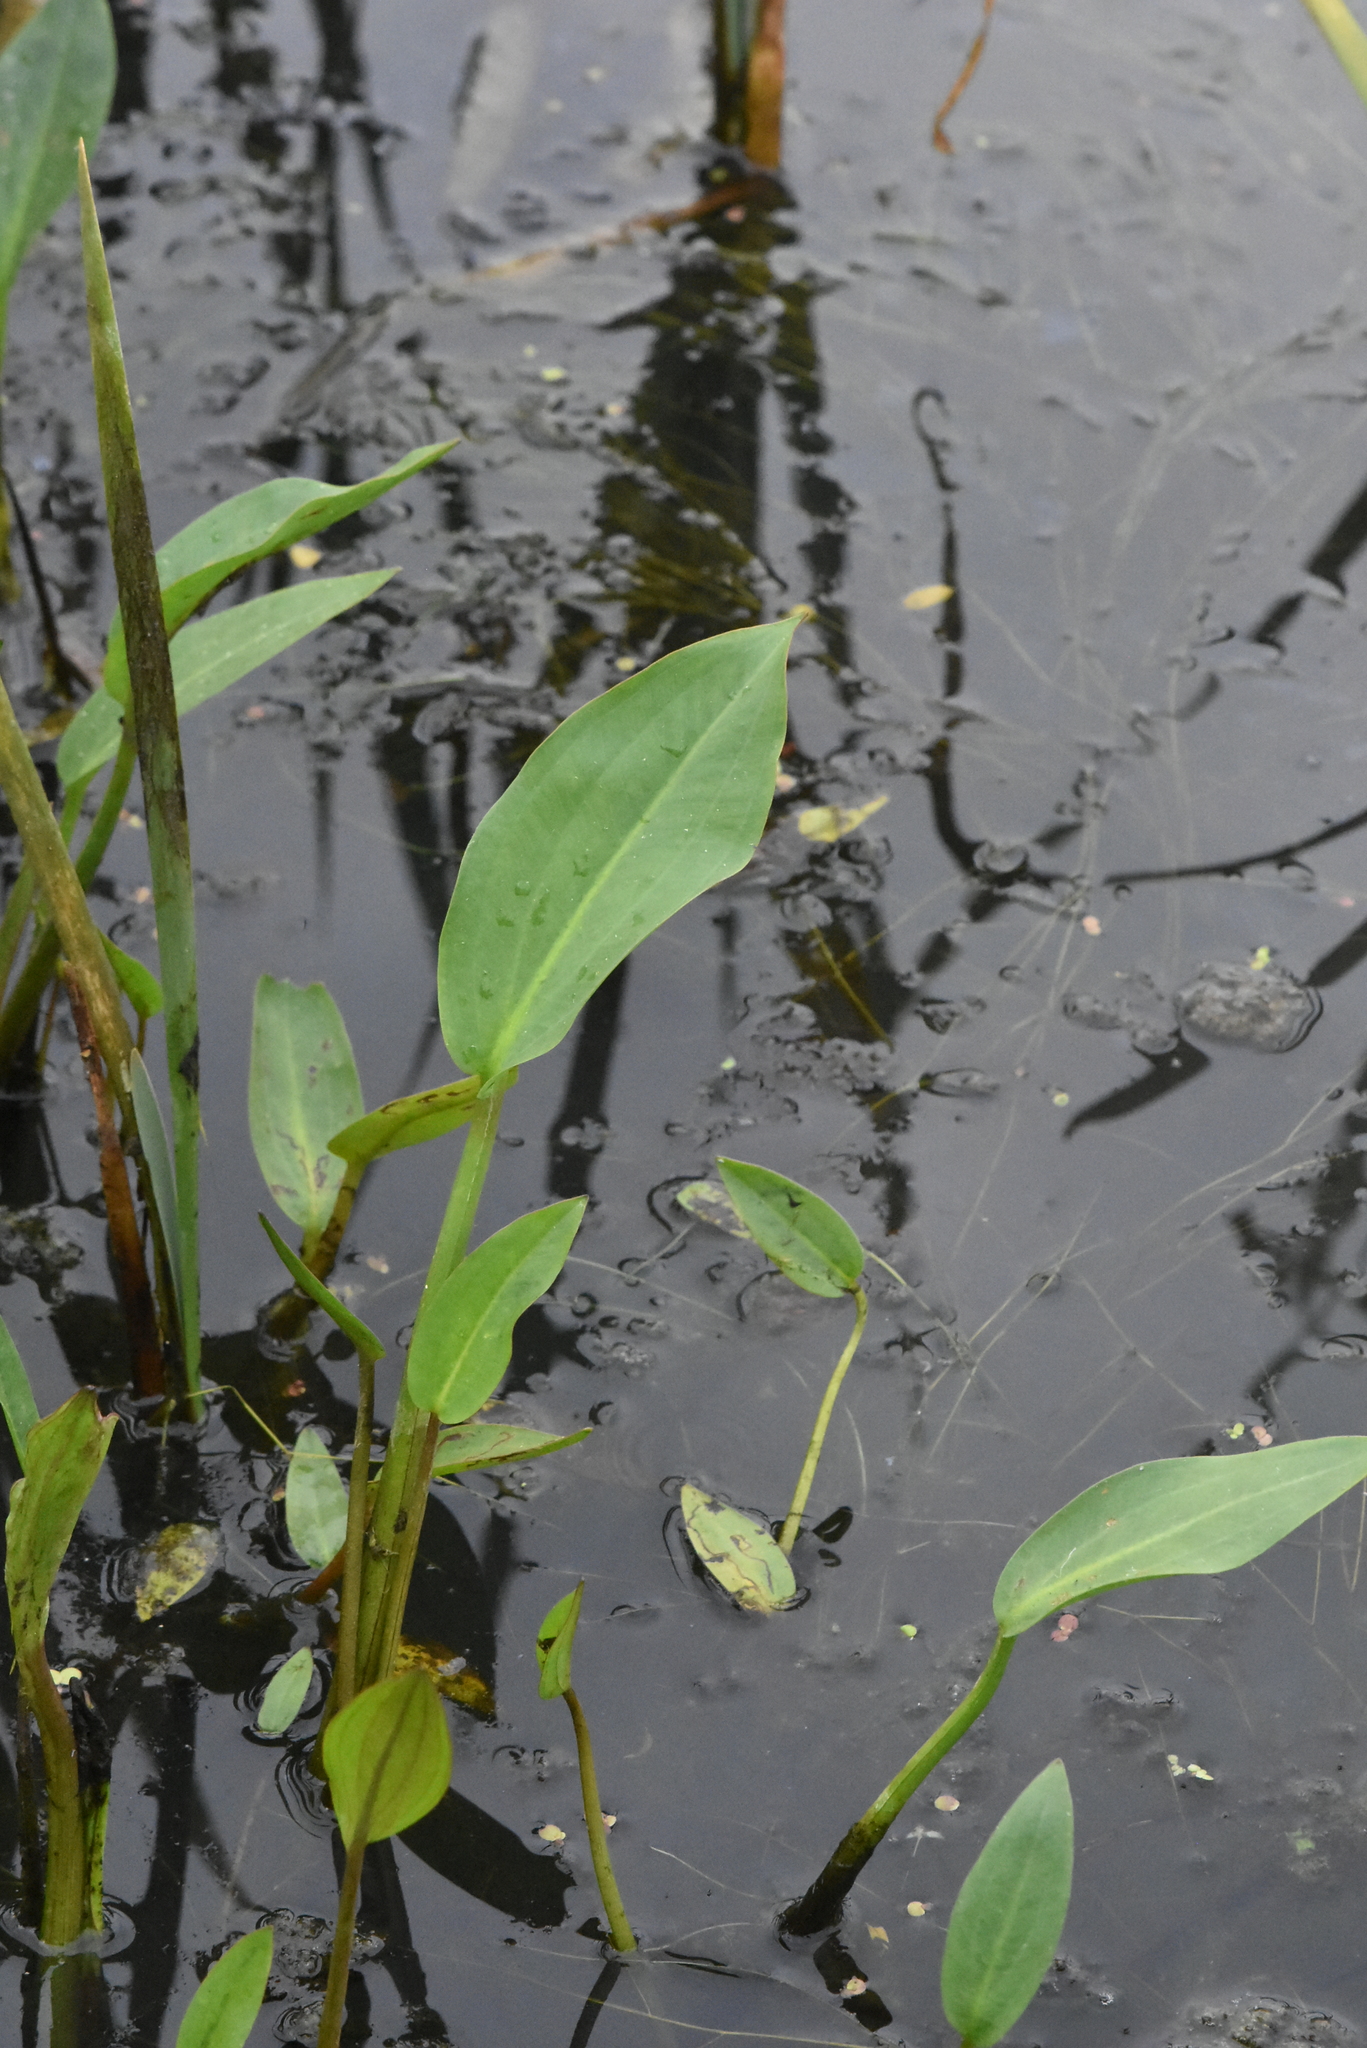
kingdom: Plantae
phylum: Tracheophyta
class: Liliopsida
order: Alismatales
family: Alismataceae
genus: Alisma
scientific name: Alisma plantago-aquatica
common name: Water-plantain
